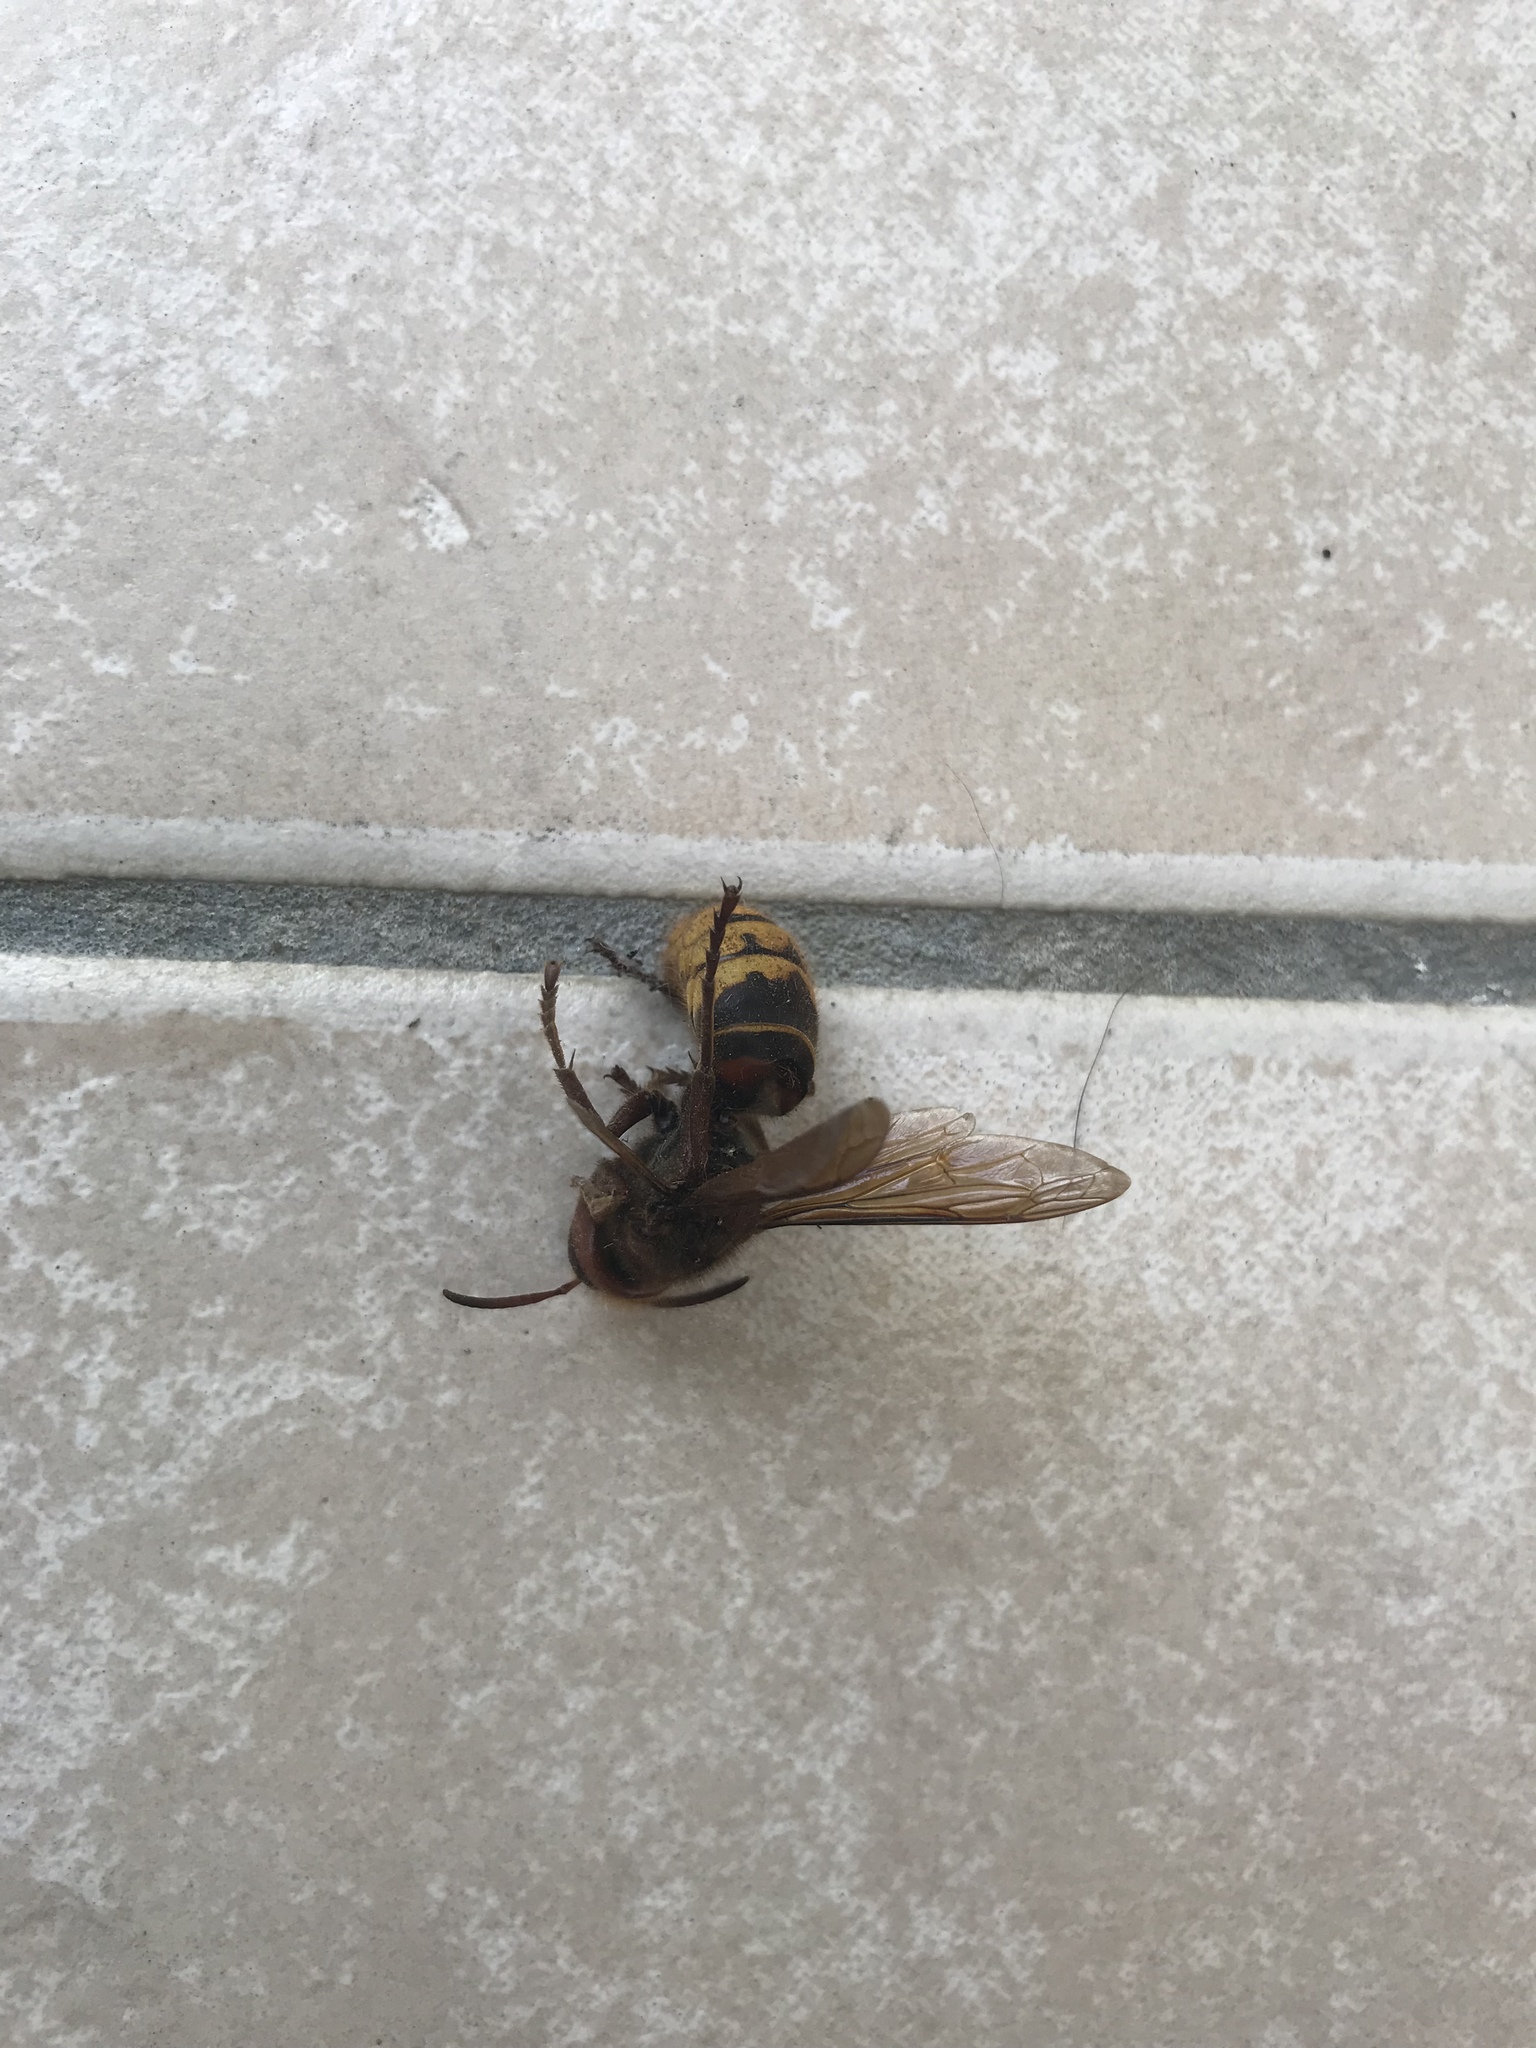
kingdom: Animalia
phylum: Arthropoda
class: Insecta
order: Hymenoptera
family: Vespidae
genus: Vespa
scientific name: Vespa crabro
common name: Hornet
